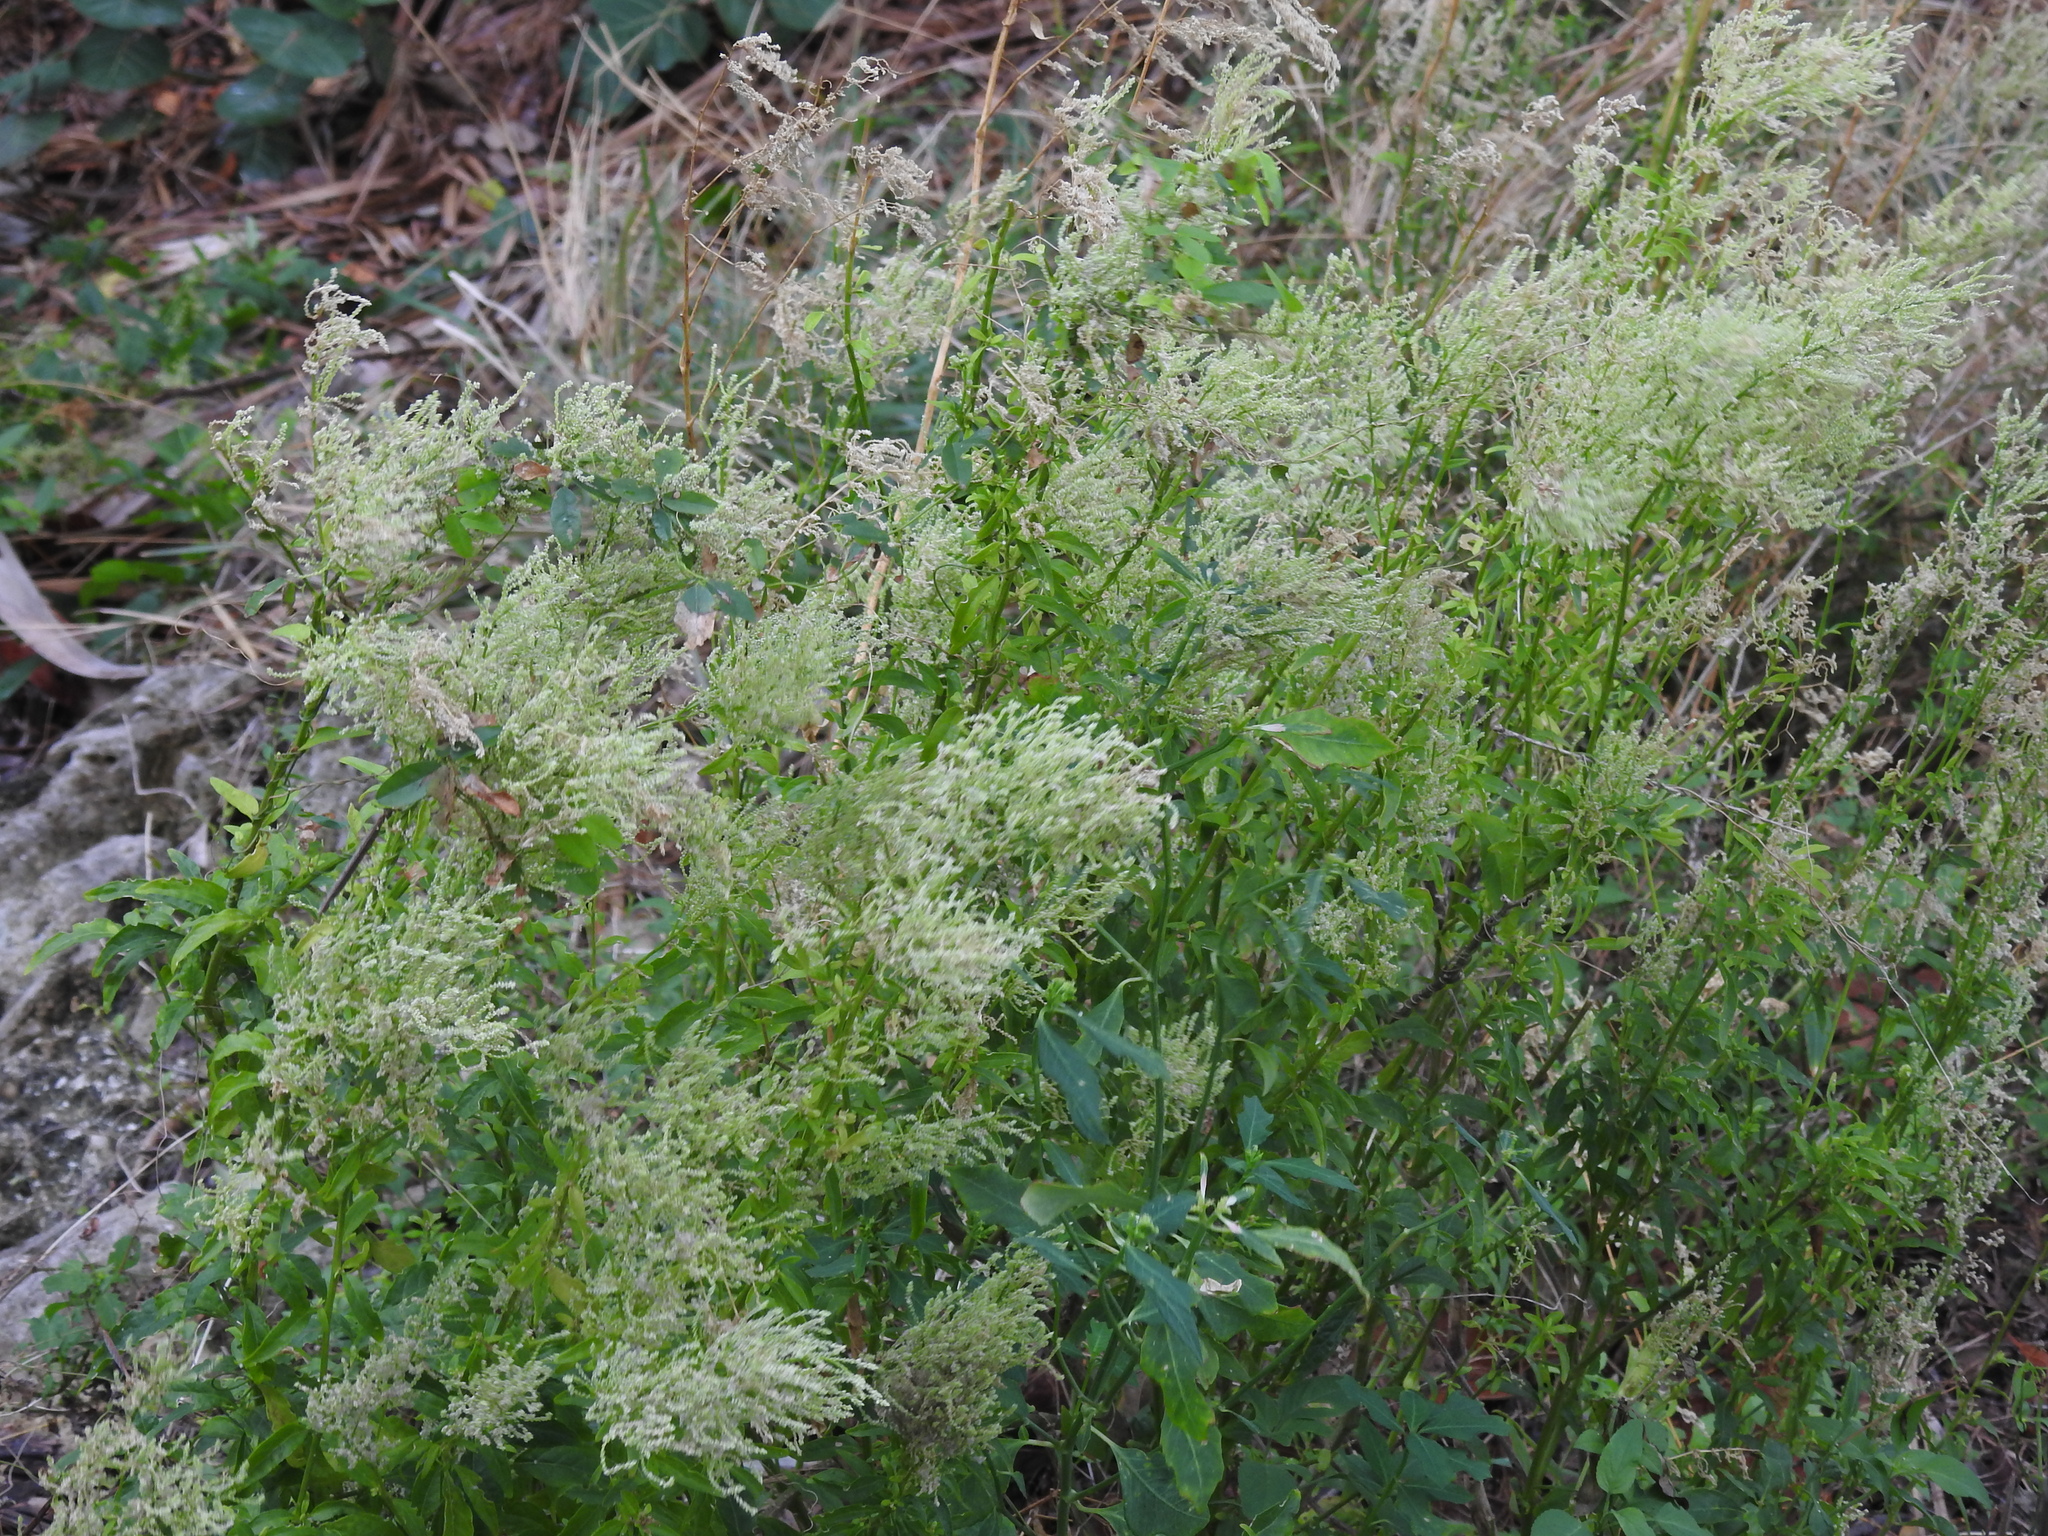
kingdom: Plantae
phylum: Tracheophyta
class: Magnoliopsida
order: Caryophyllales
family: Amaranthaceae
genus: Iresine
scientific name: Iresine diffusa
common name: Juba's-bush
